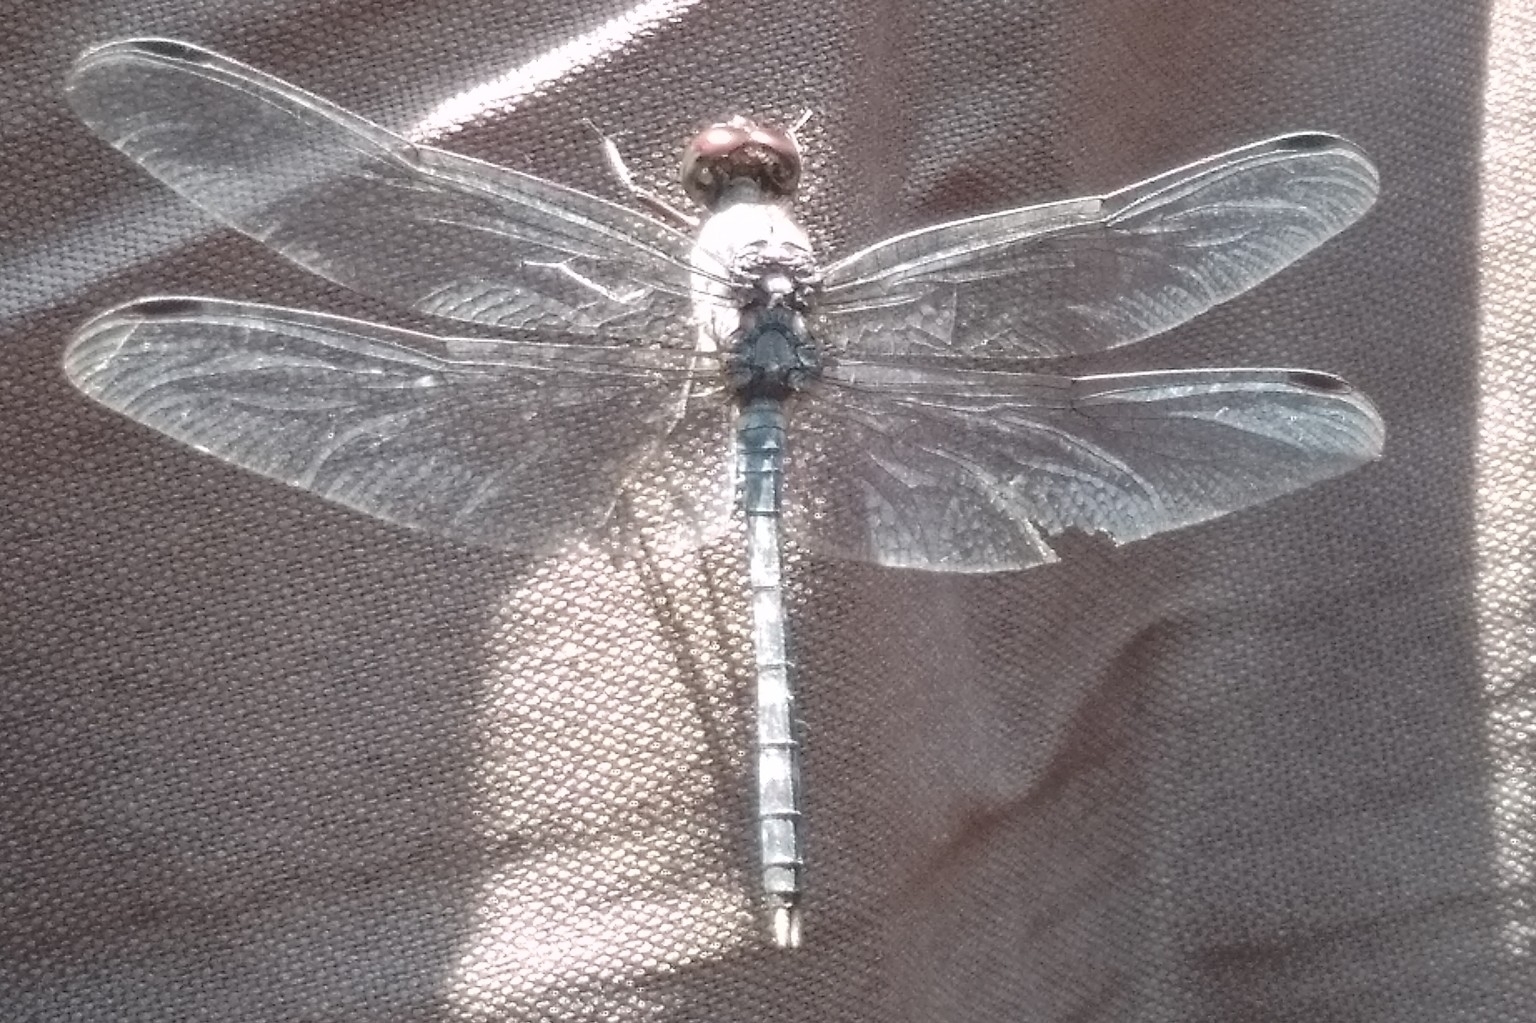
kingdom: Animalia
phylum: Arthropoda
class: Insecta
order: Odonata
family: Libellulidae
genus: Bradinopyga
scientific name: Bradinopyga geminata
